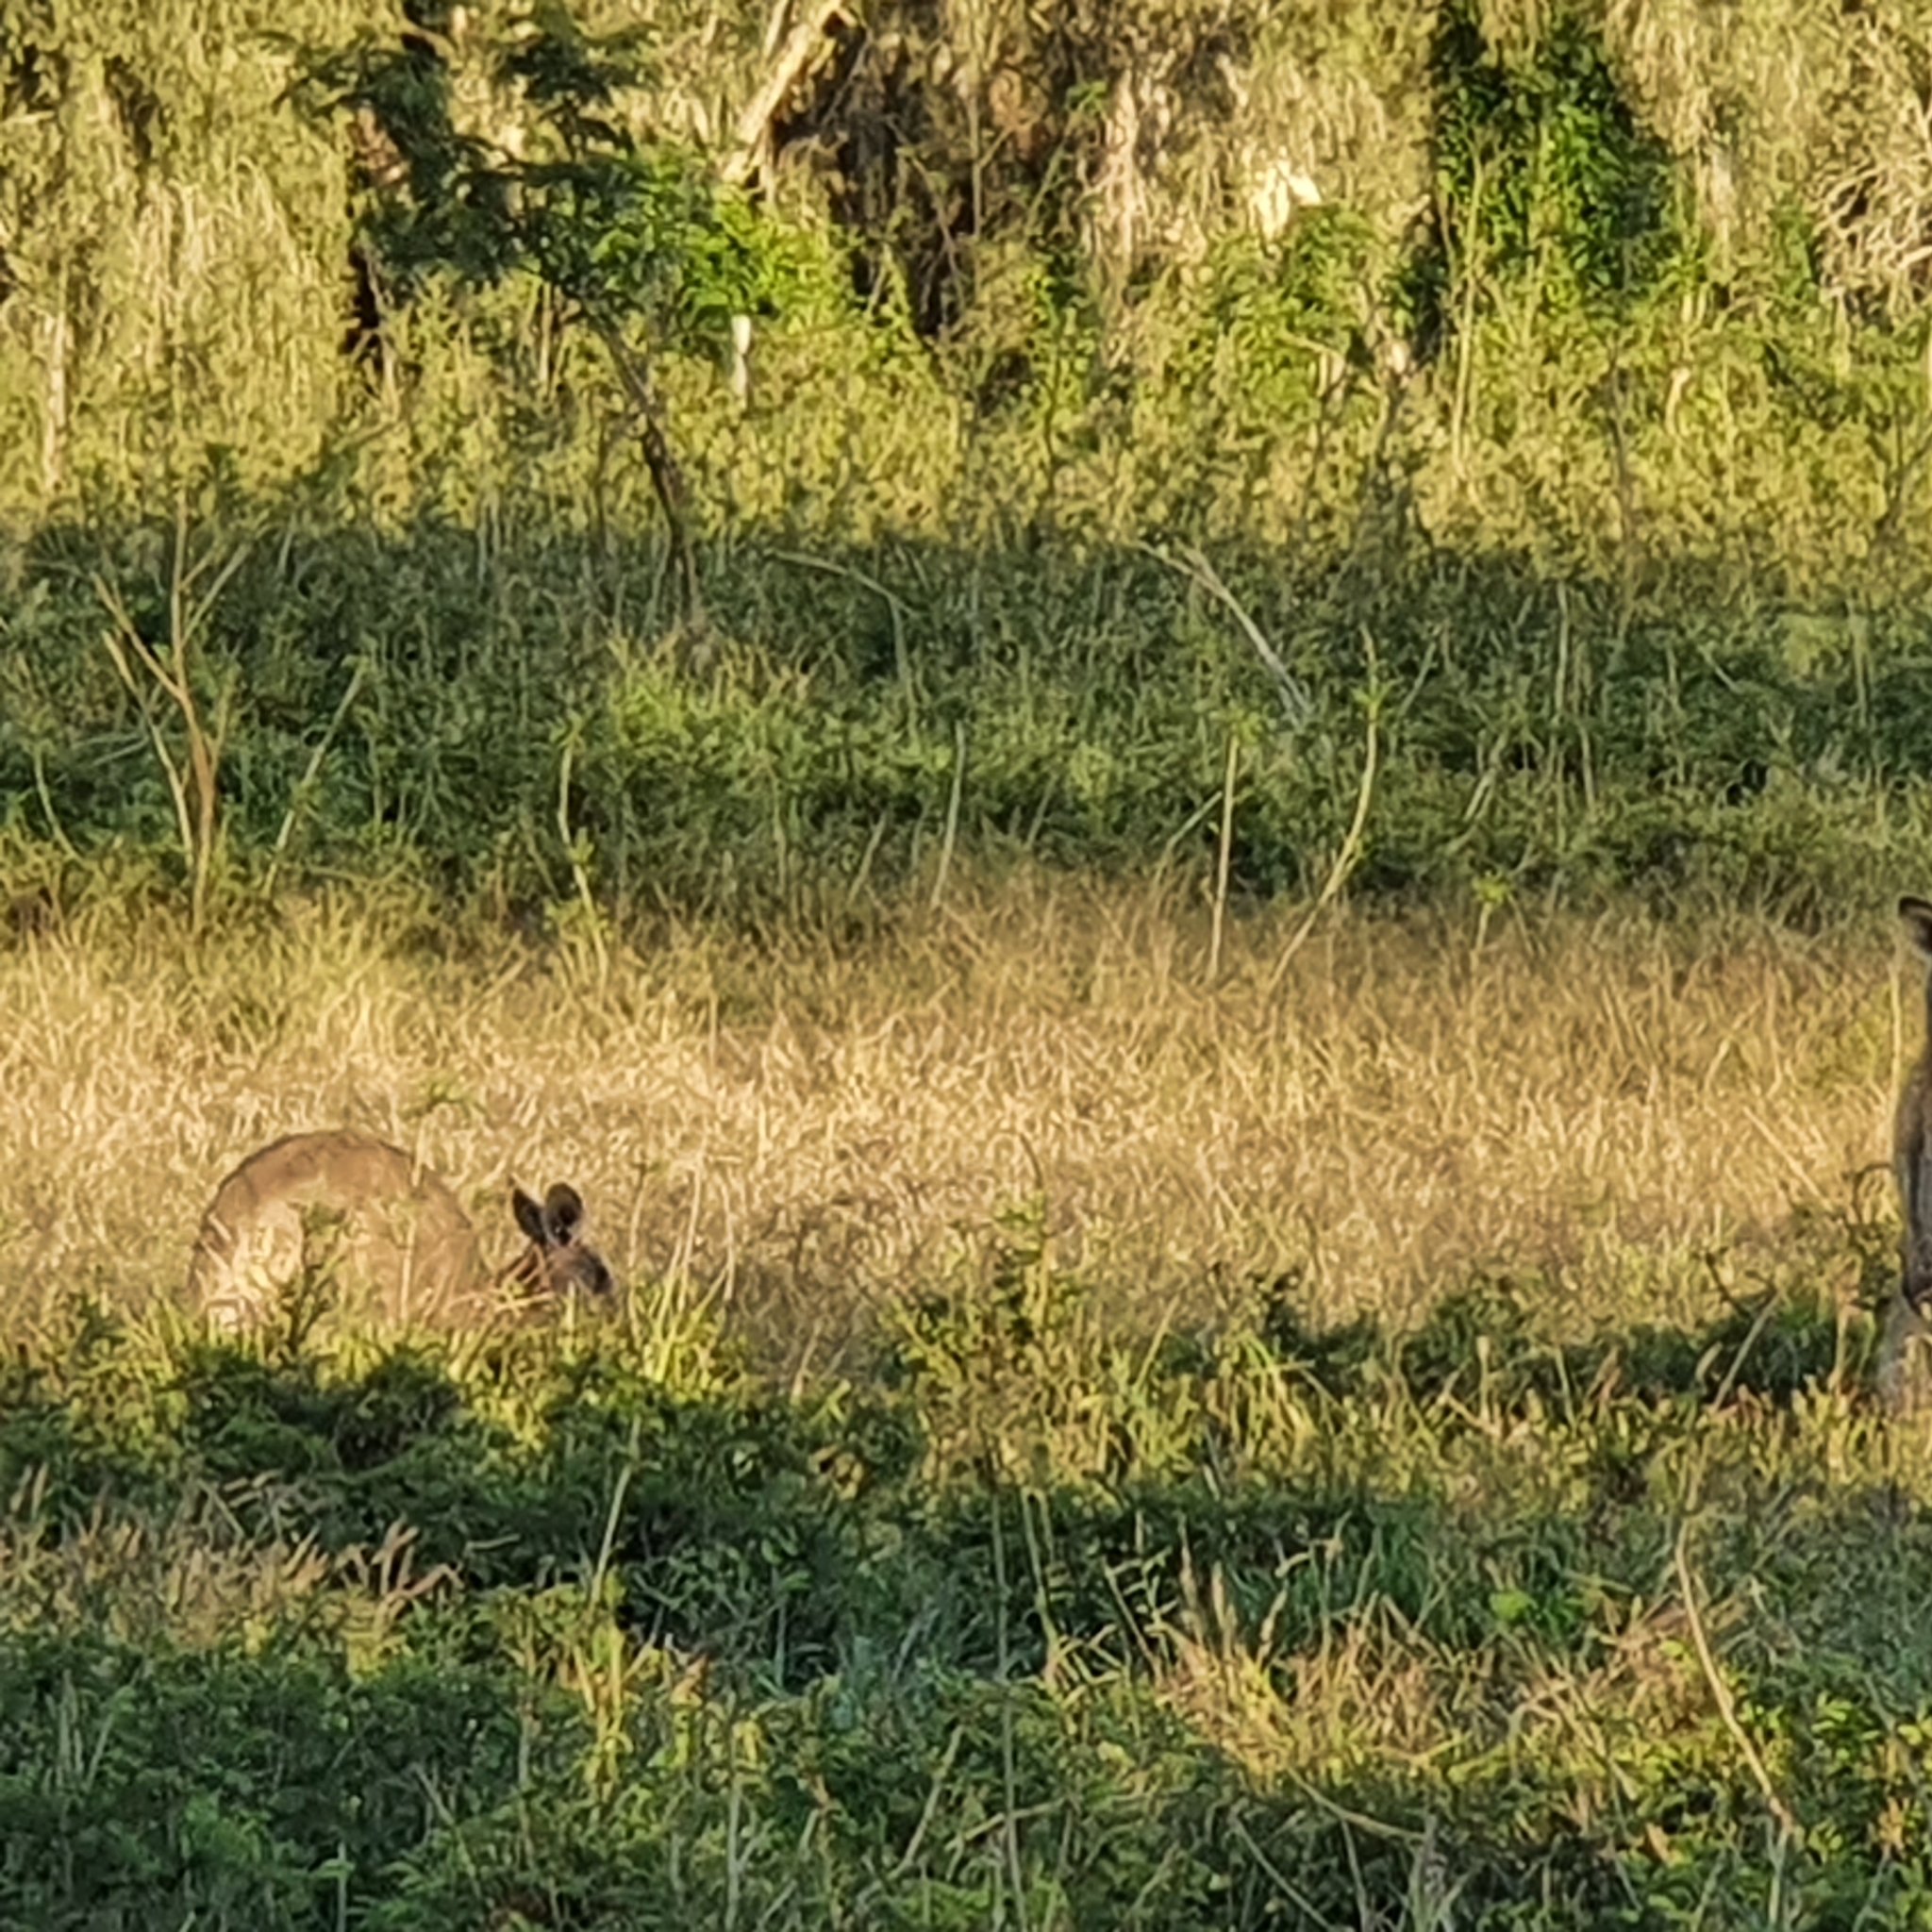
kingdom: Animalia
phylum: Chordata
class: Mammalia
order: Diprotodontia
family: Macropodidae
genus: Macropus
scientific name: Macropus giganteus
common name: Eastern grey kangaroo
